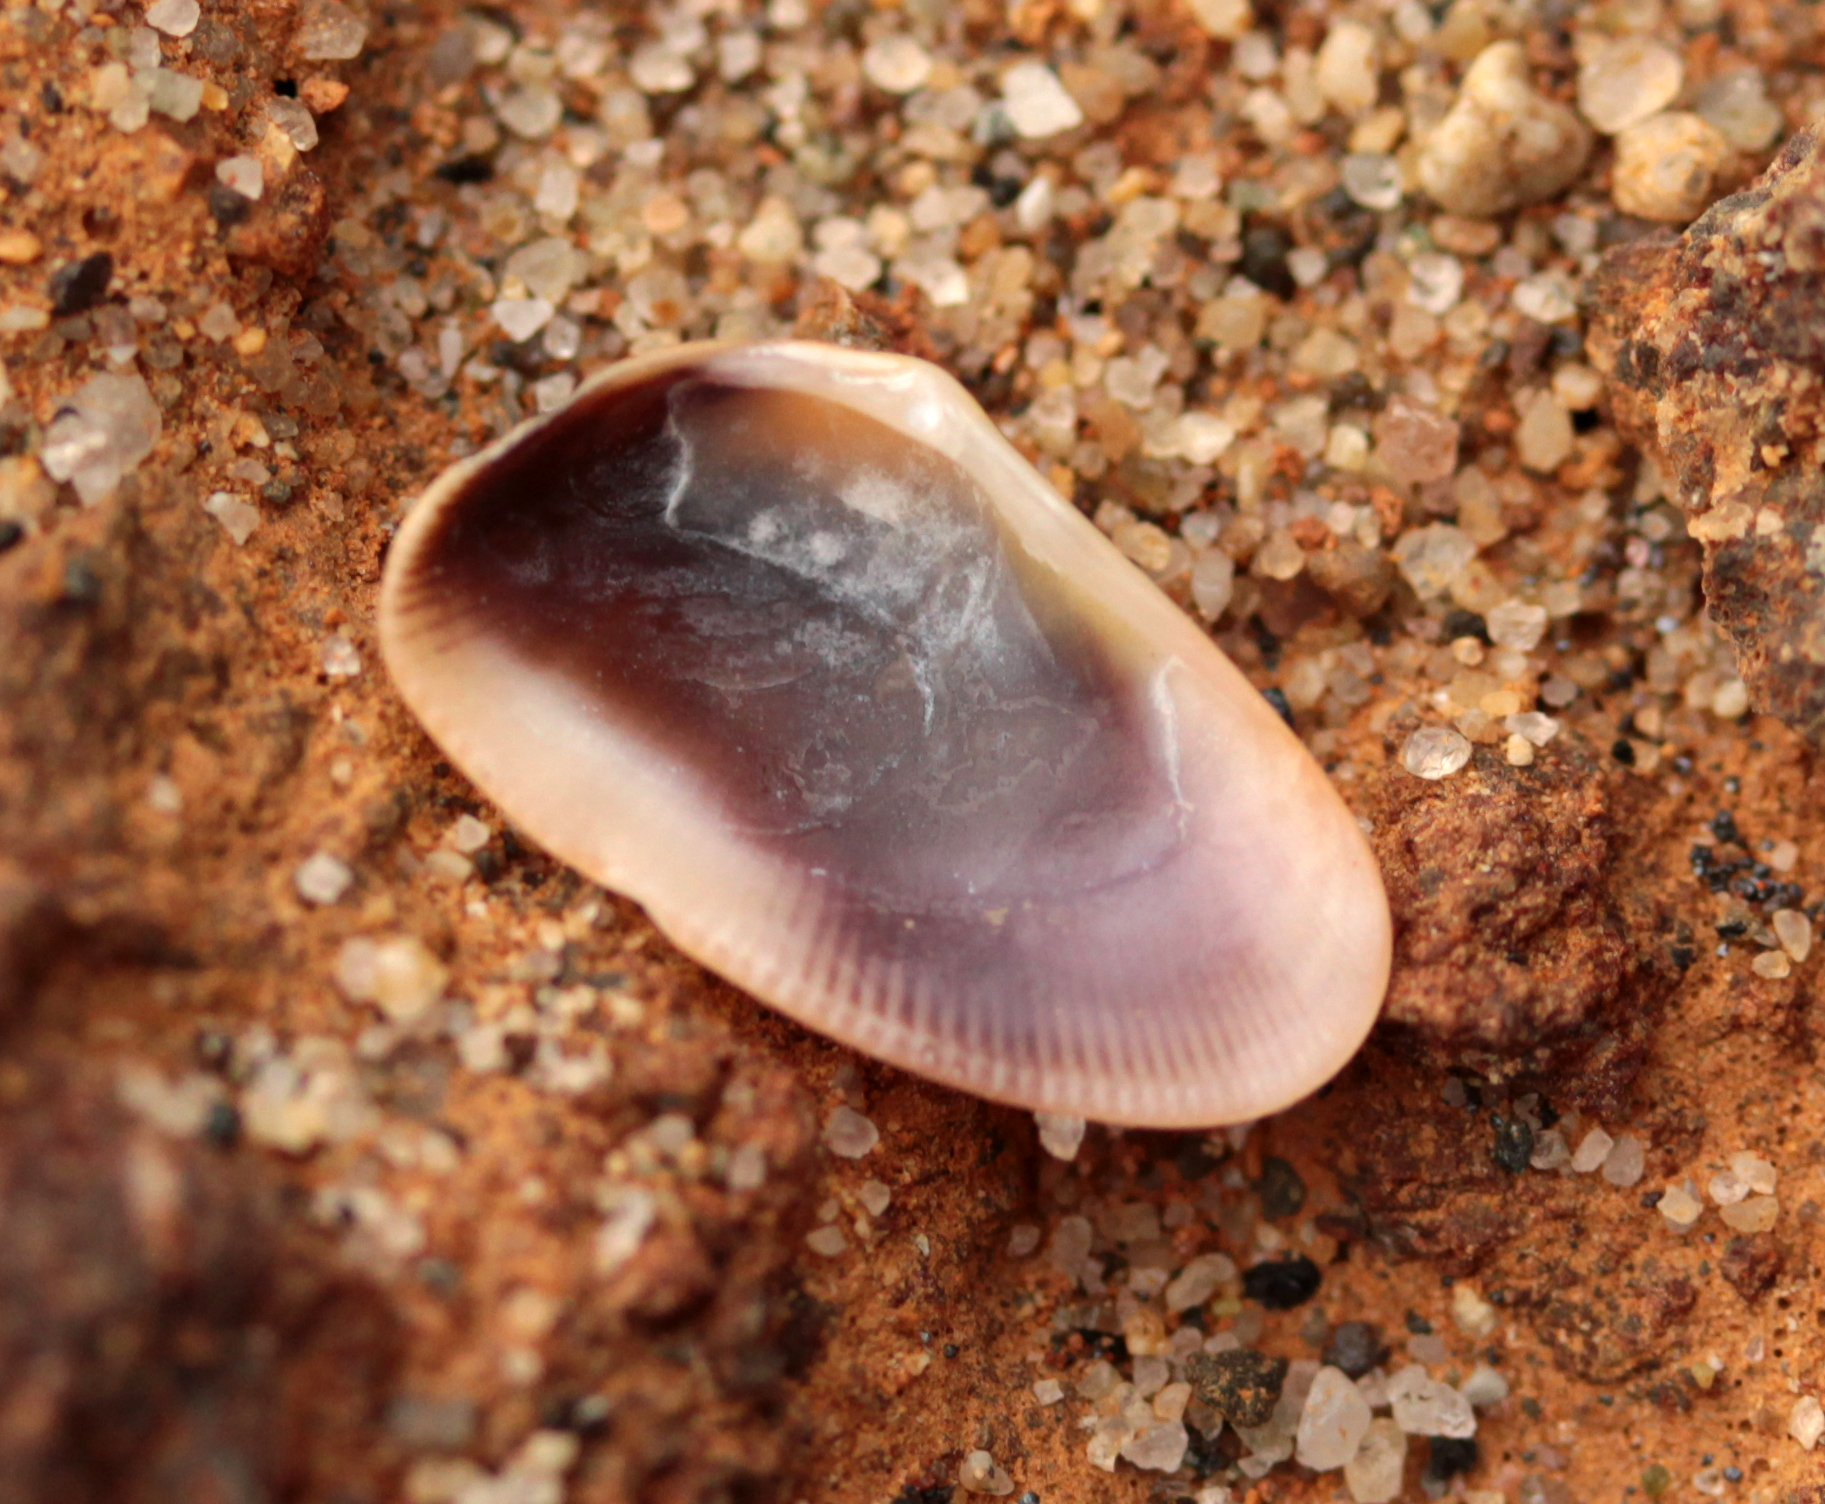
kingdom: Animalia
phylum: Mollusca
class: Bivalvia
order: Cardiida
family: Donacidae
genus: Donax
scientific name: Donax gouldii
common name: Gould beanclam
